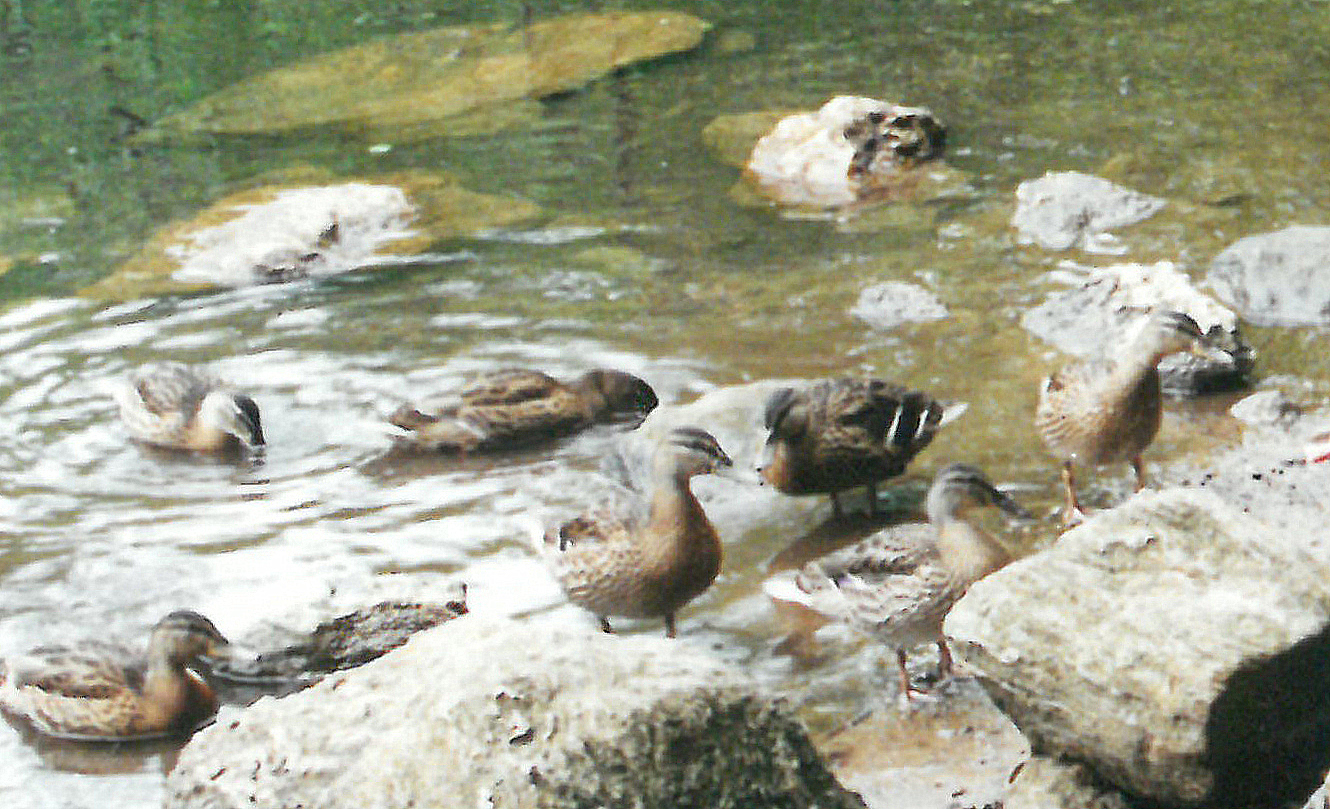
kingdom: Animalia
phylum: Chordata
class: Aves
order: Anseriformes
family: Anatidae
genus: Anas
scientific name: Anas platyrhynchos
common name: Mallard
